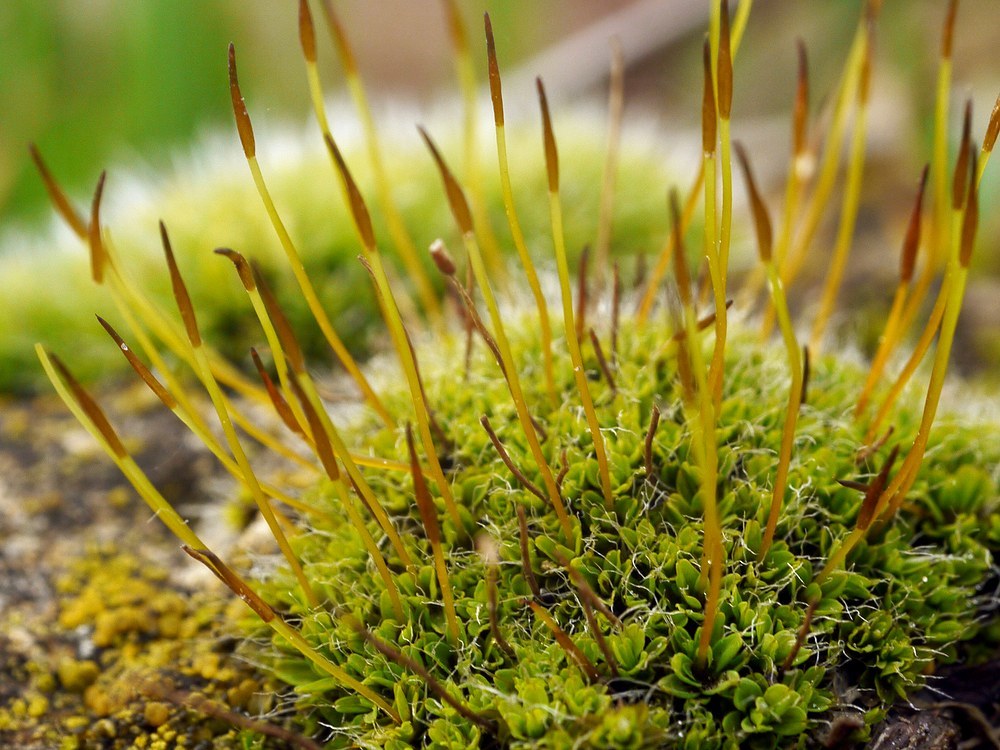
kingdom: Plantae
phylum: Bryophyta
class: Bryopsida
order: Pottiales
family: Pottiaceae
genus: Tortula
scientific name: Tortula muralis
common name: Wall screw-moss
